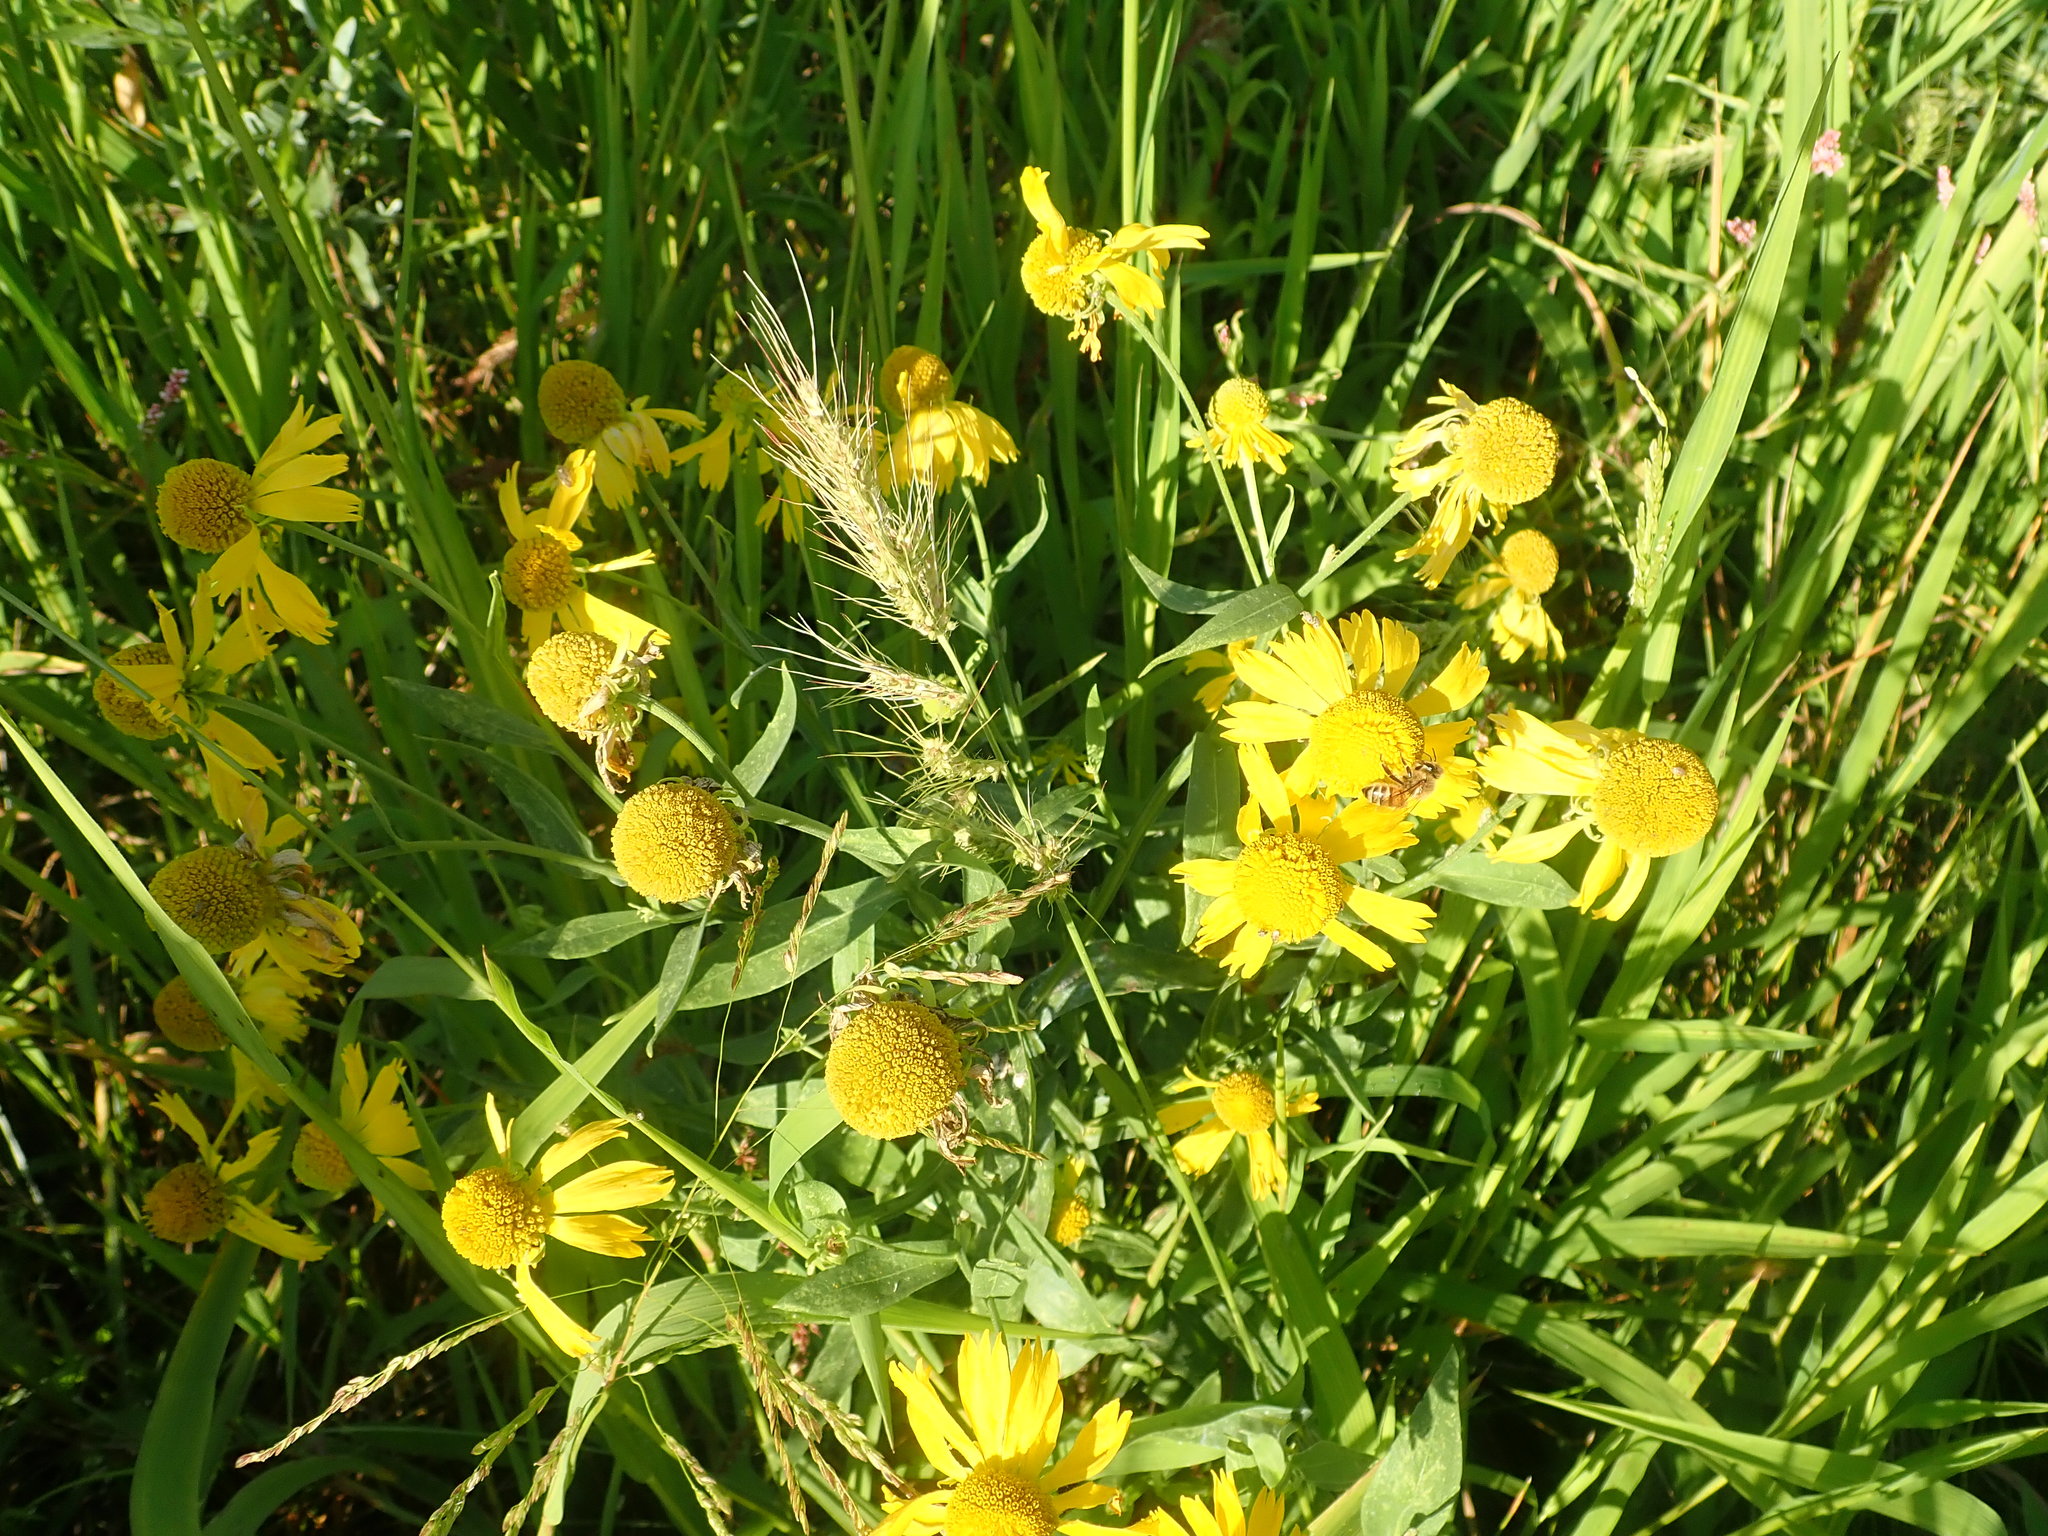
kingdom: Plantae
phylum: Tracheophyta
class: Magnoliopsida
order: Asterales
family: Asteraceae
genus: Helenium
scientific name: Helenium autumnale
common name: Sneezeweed
